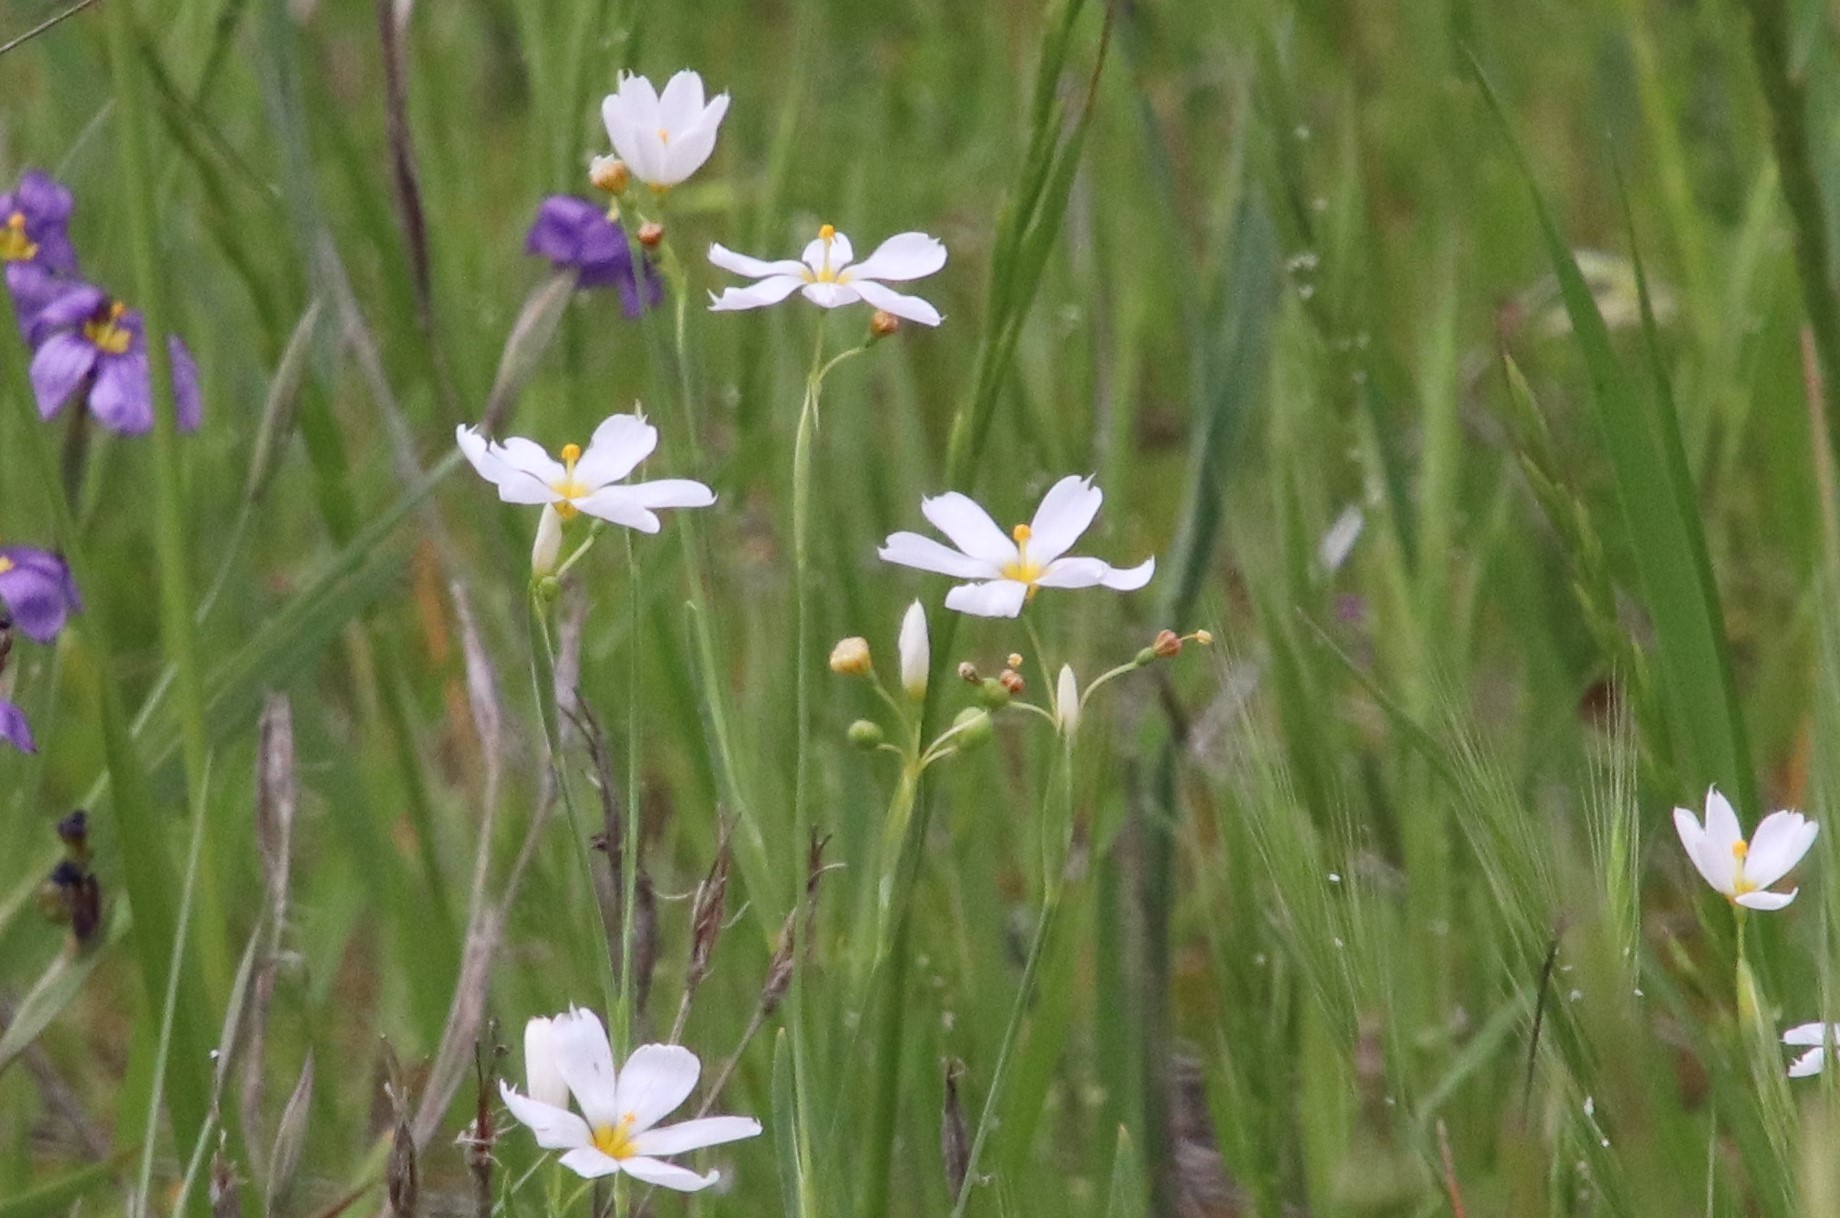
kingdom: Plantae
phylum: Tracheophyta
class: Liliopsida
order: Asparagales
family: Iridaceae
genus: Sisyrinchium
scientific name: Sisyrinchium bellum
